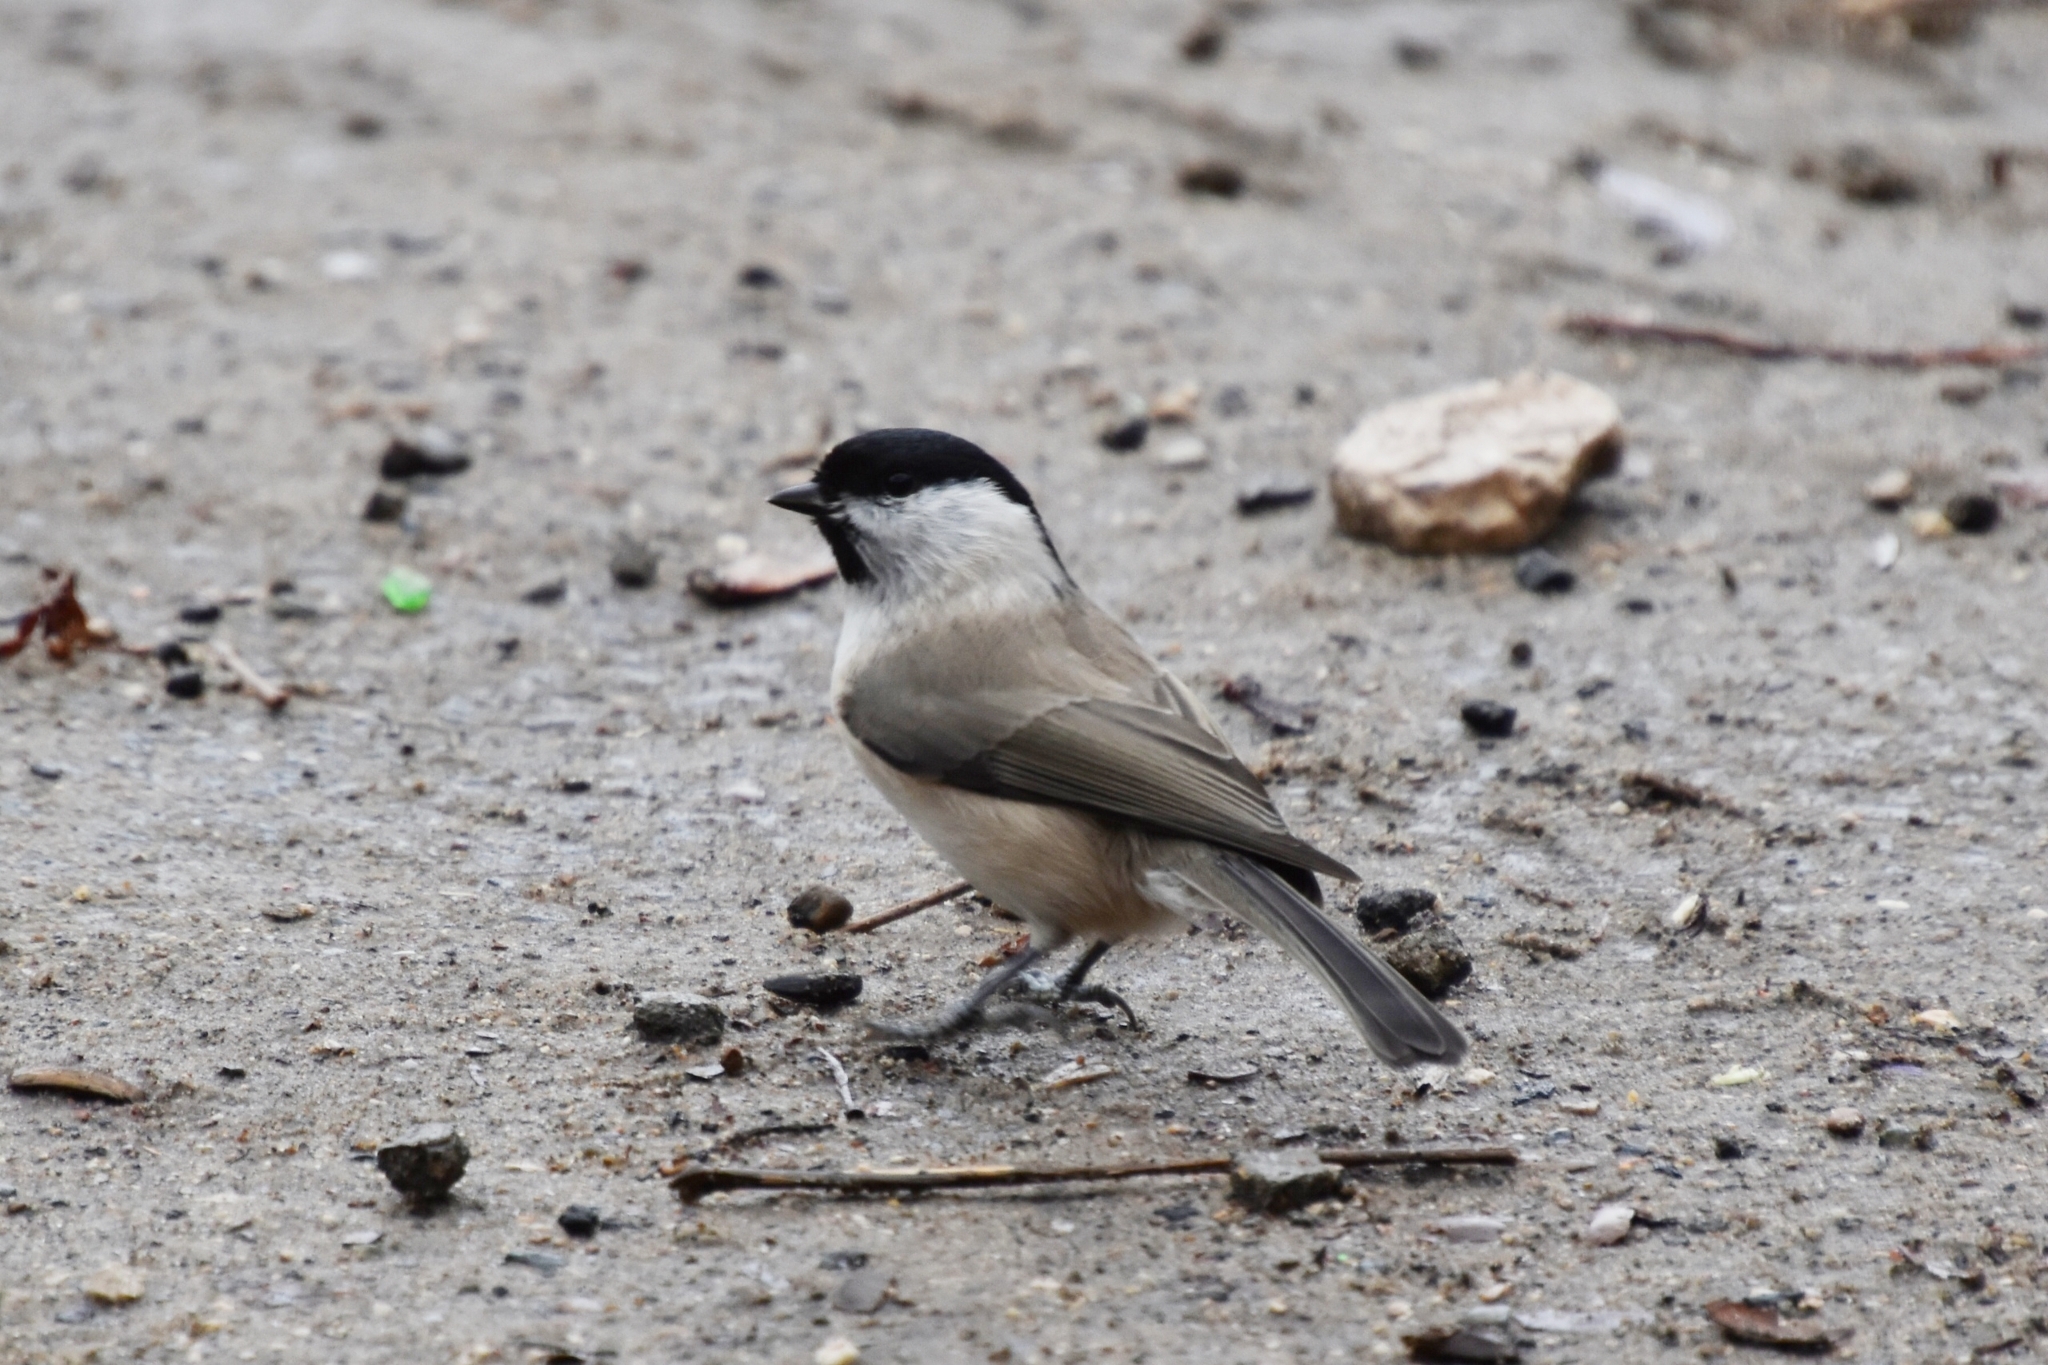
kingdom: Animalia
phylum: Chordata
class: Aves
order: Passeriformes
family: Paridae
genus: Poecile
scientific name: Poecile palustris
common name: Marsh tit
